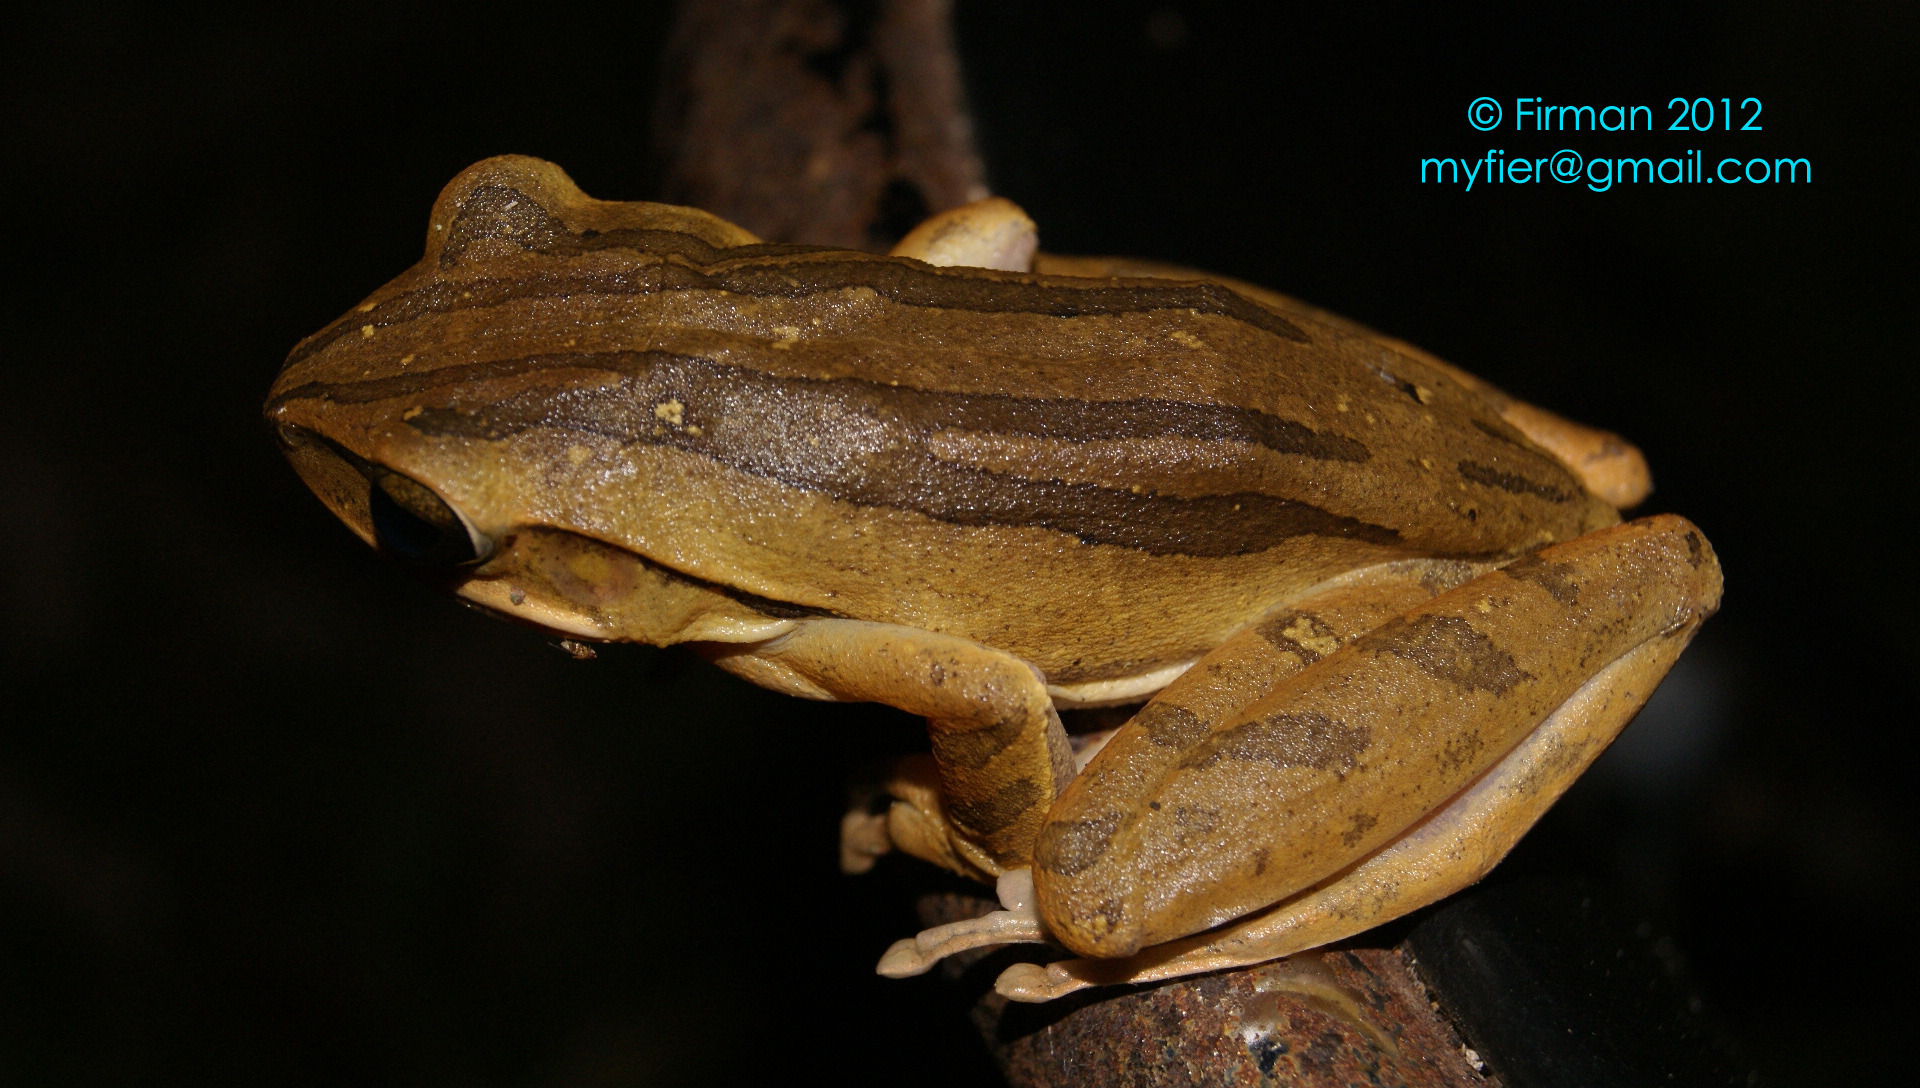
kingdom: Animalia
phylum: Chordata
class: Amphibia
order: Anura
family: Rhacophoridae
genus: Polypedates
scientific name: Polypedates leucomystax
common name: Common tree frog/four-lined tree frog
